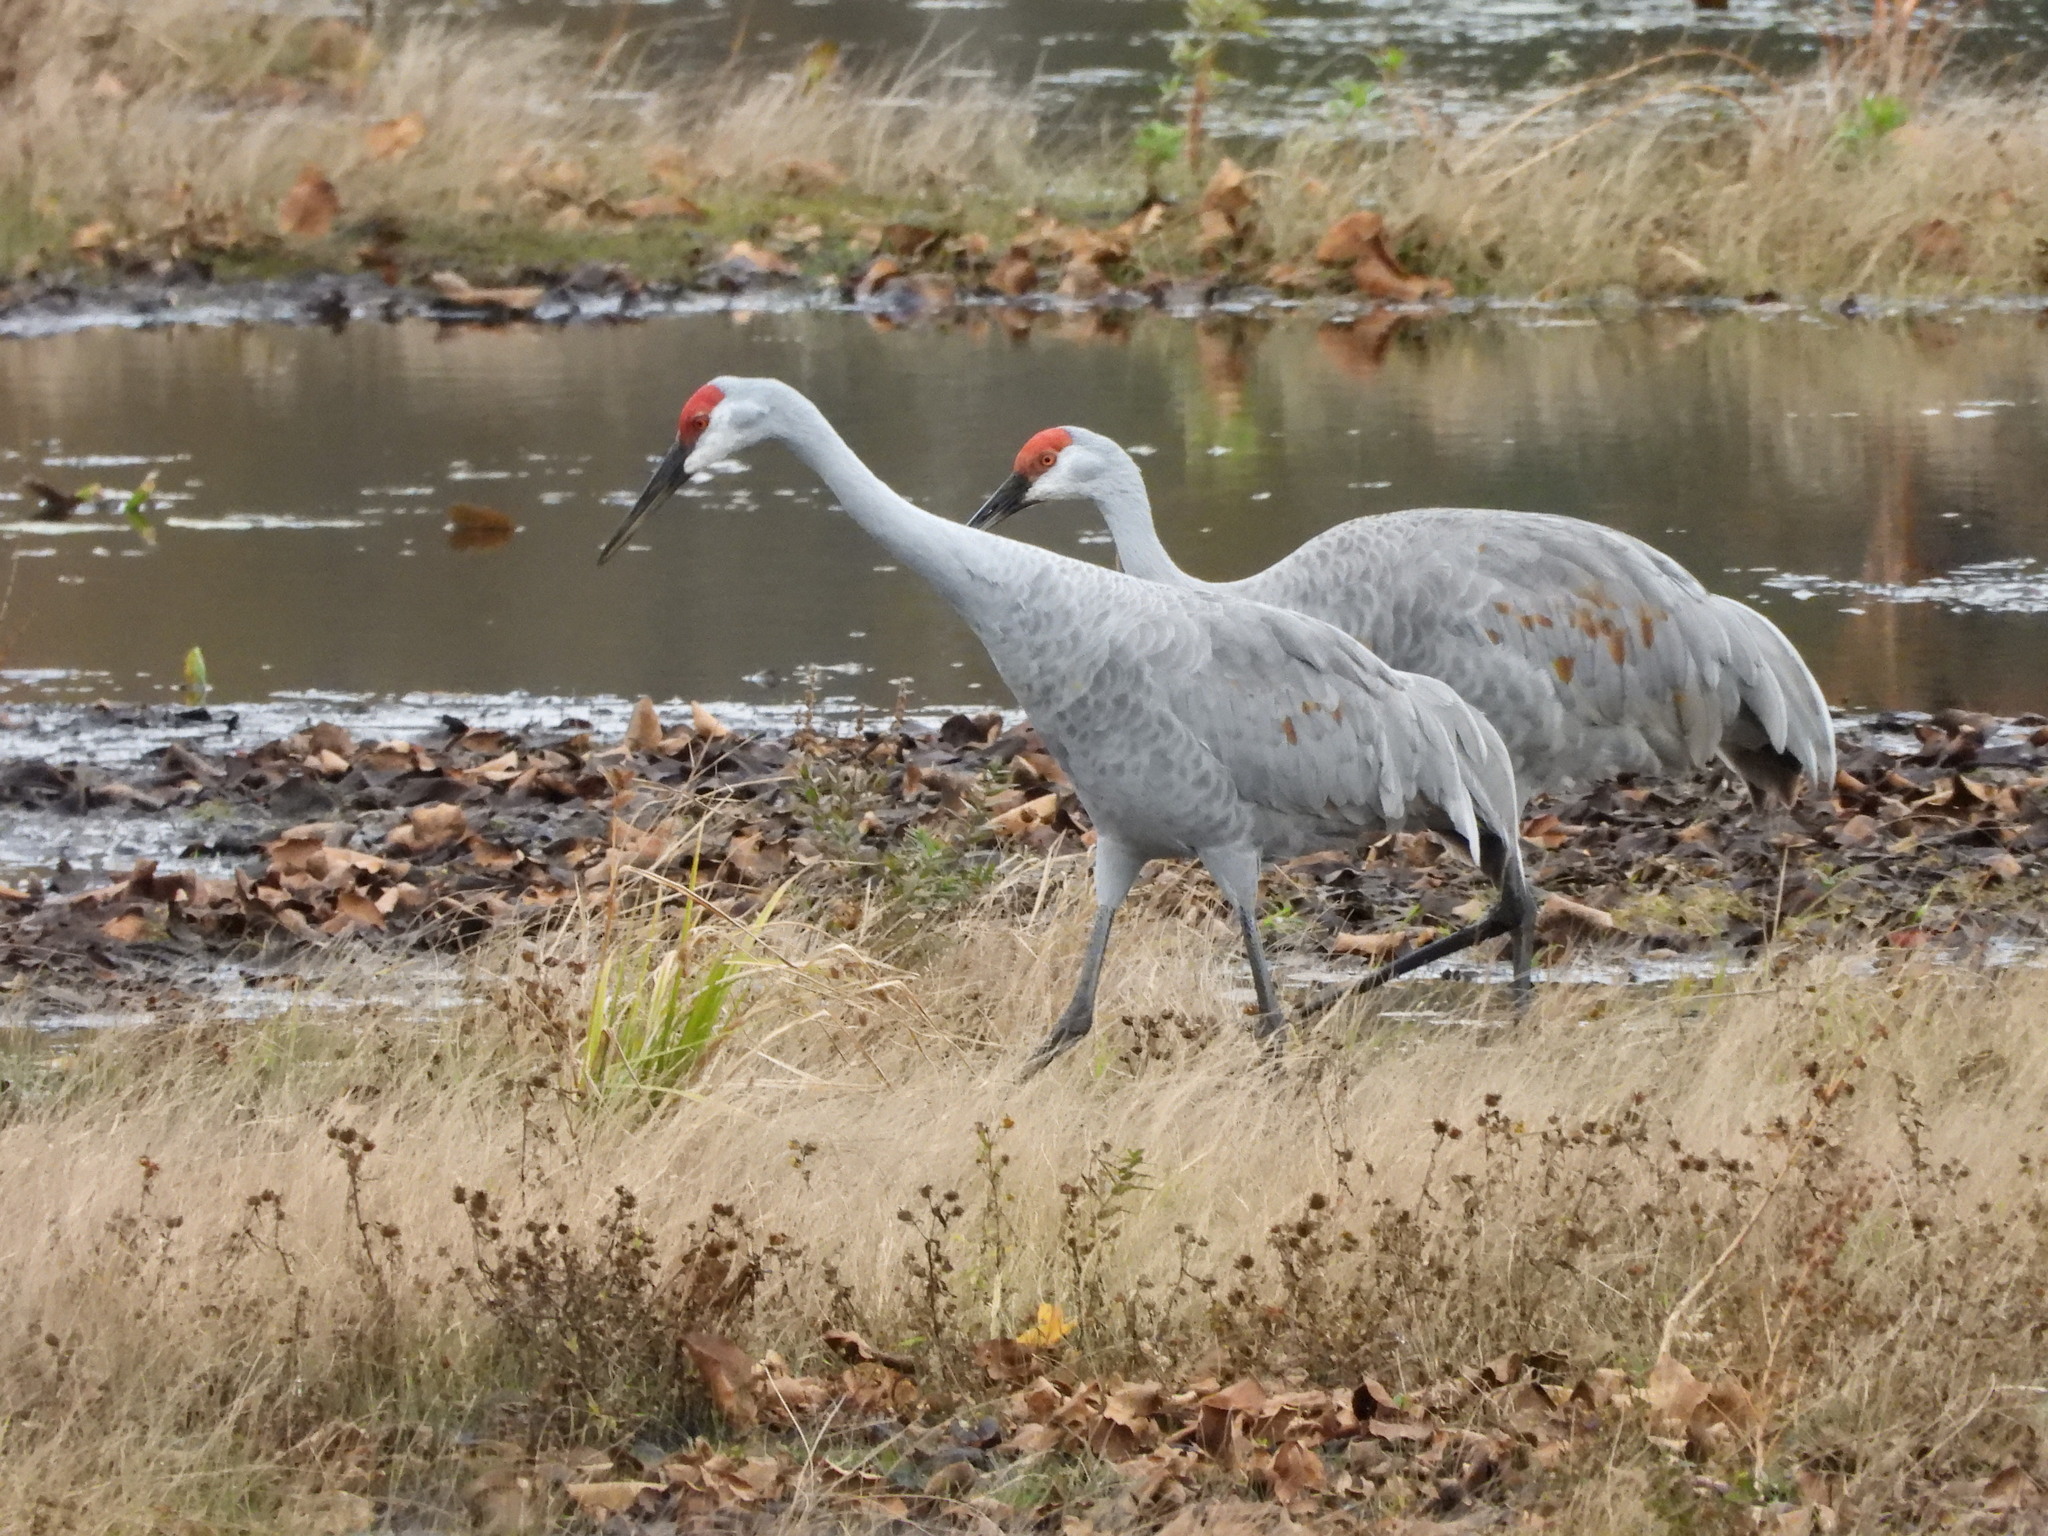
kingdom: Animalia
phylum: Chordata
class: Aves
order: Gruiformes
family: Gruidae
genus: Grus
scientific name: Grus canadensis
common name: Sandhill crane
